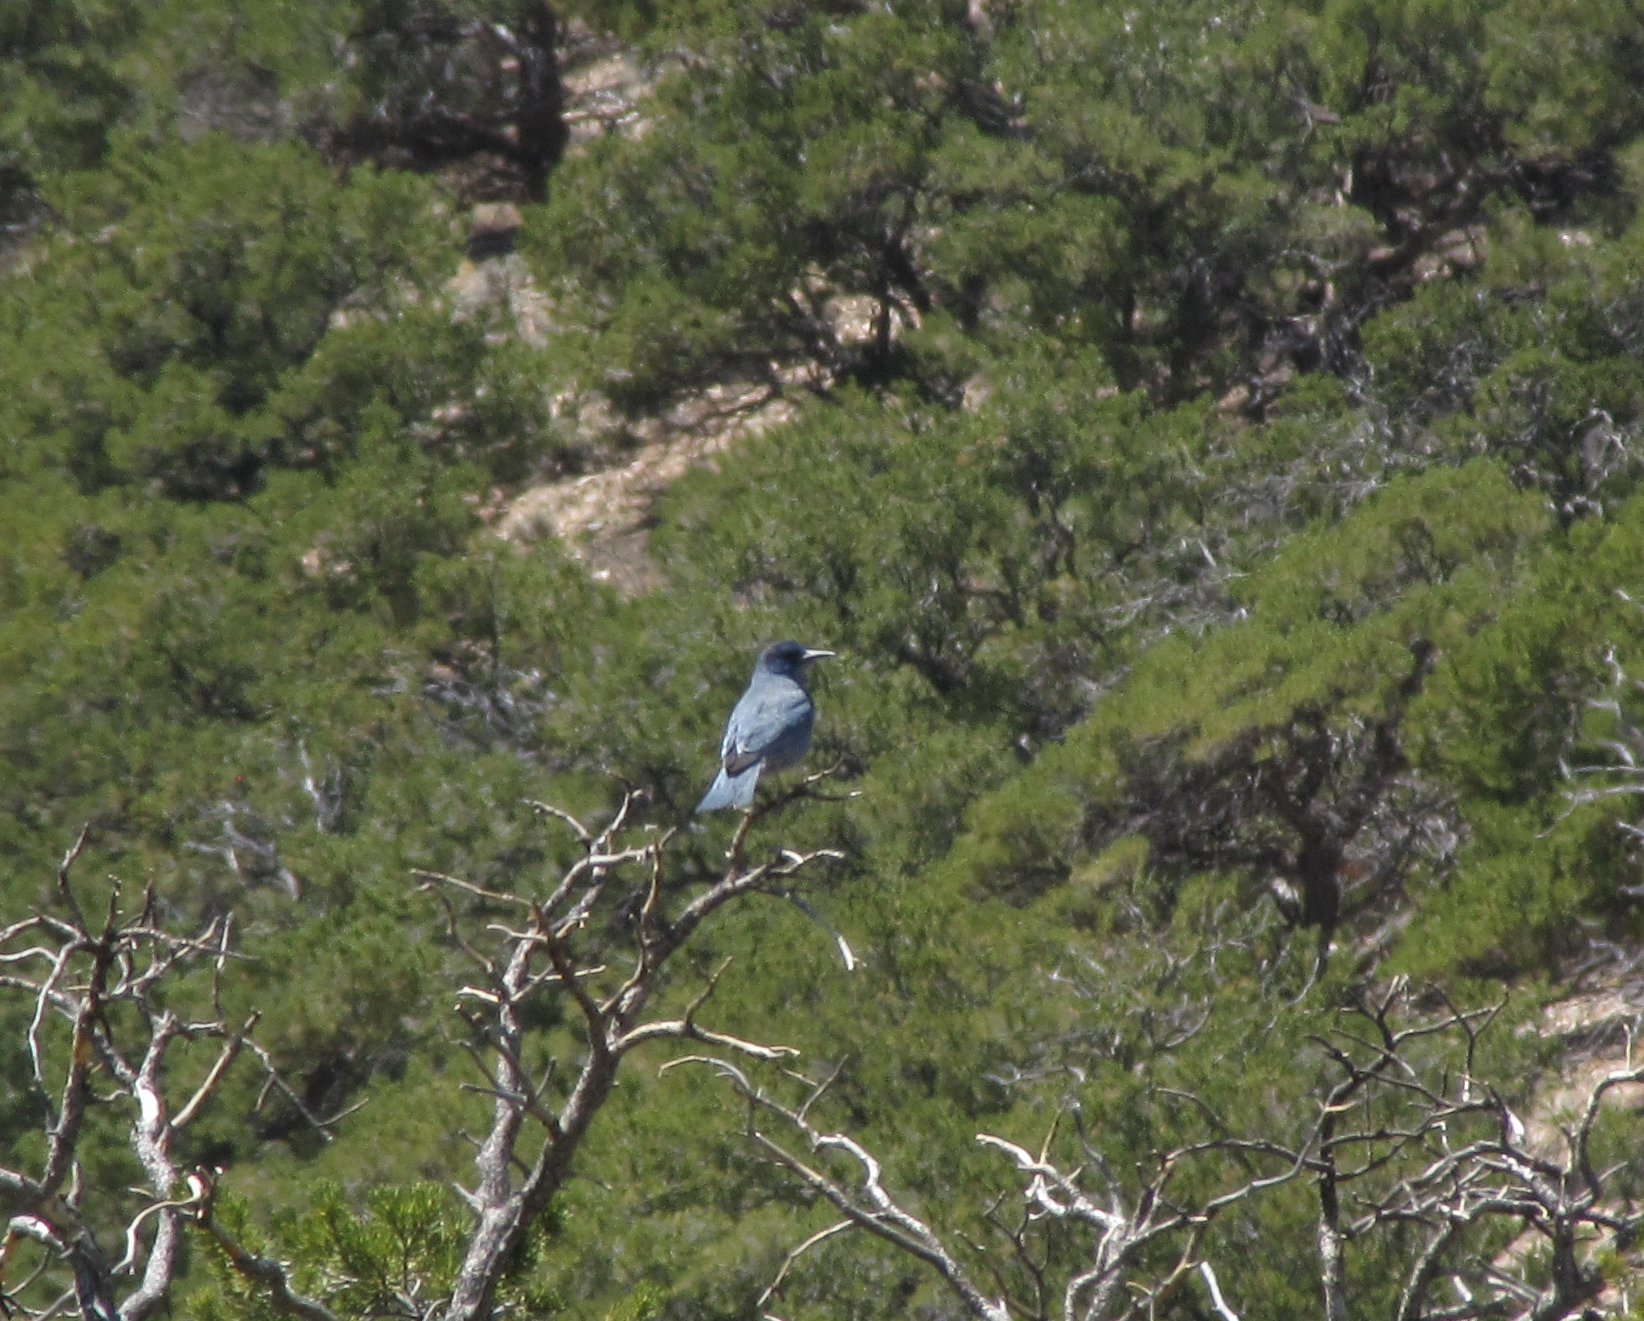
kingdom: Animalia
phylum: Chordata
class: Aves
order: Passeriformes
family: Corvidae
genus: Gymnorhinus
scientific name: Gymnorhinus cyanocephalus
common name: Pinyon jay
